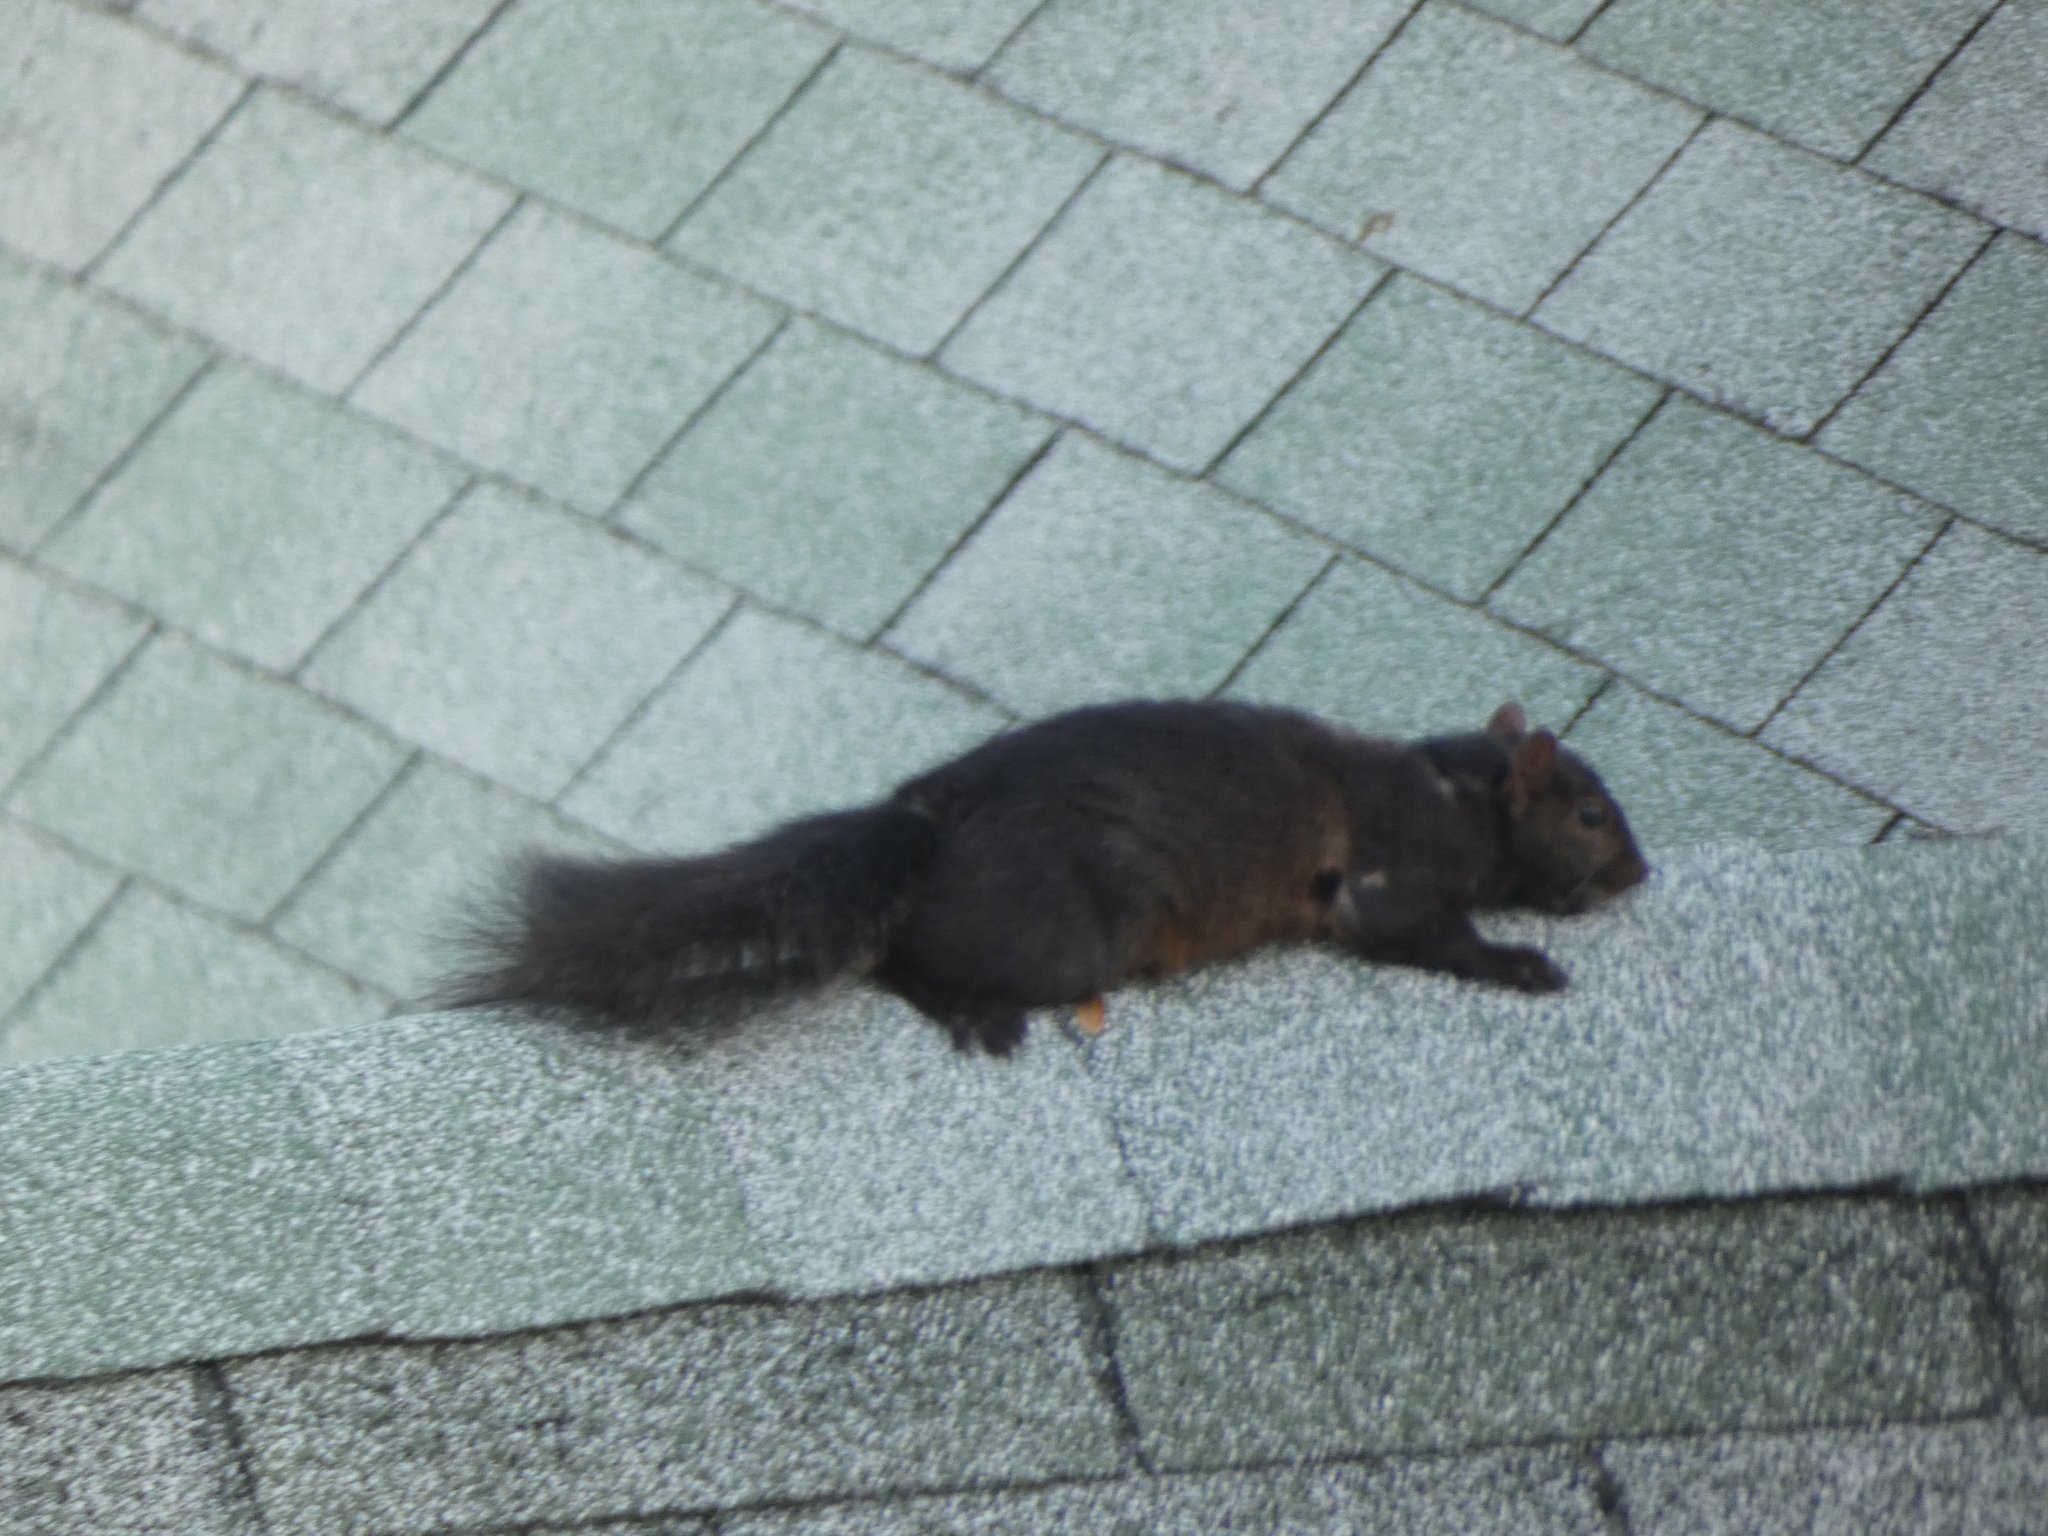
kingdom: Animalia
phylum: Chordata
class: Mammalia
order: Rodentia
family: Sciuridae
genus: Sciurus
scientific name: Sciurus carolinensis
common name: Eastern gray squirrel
